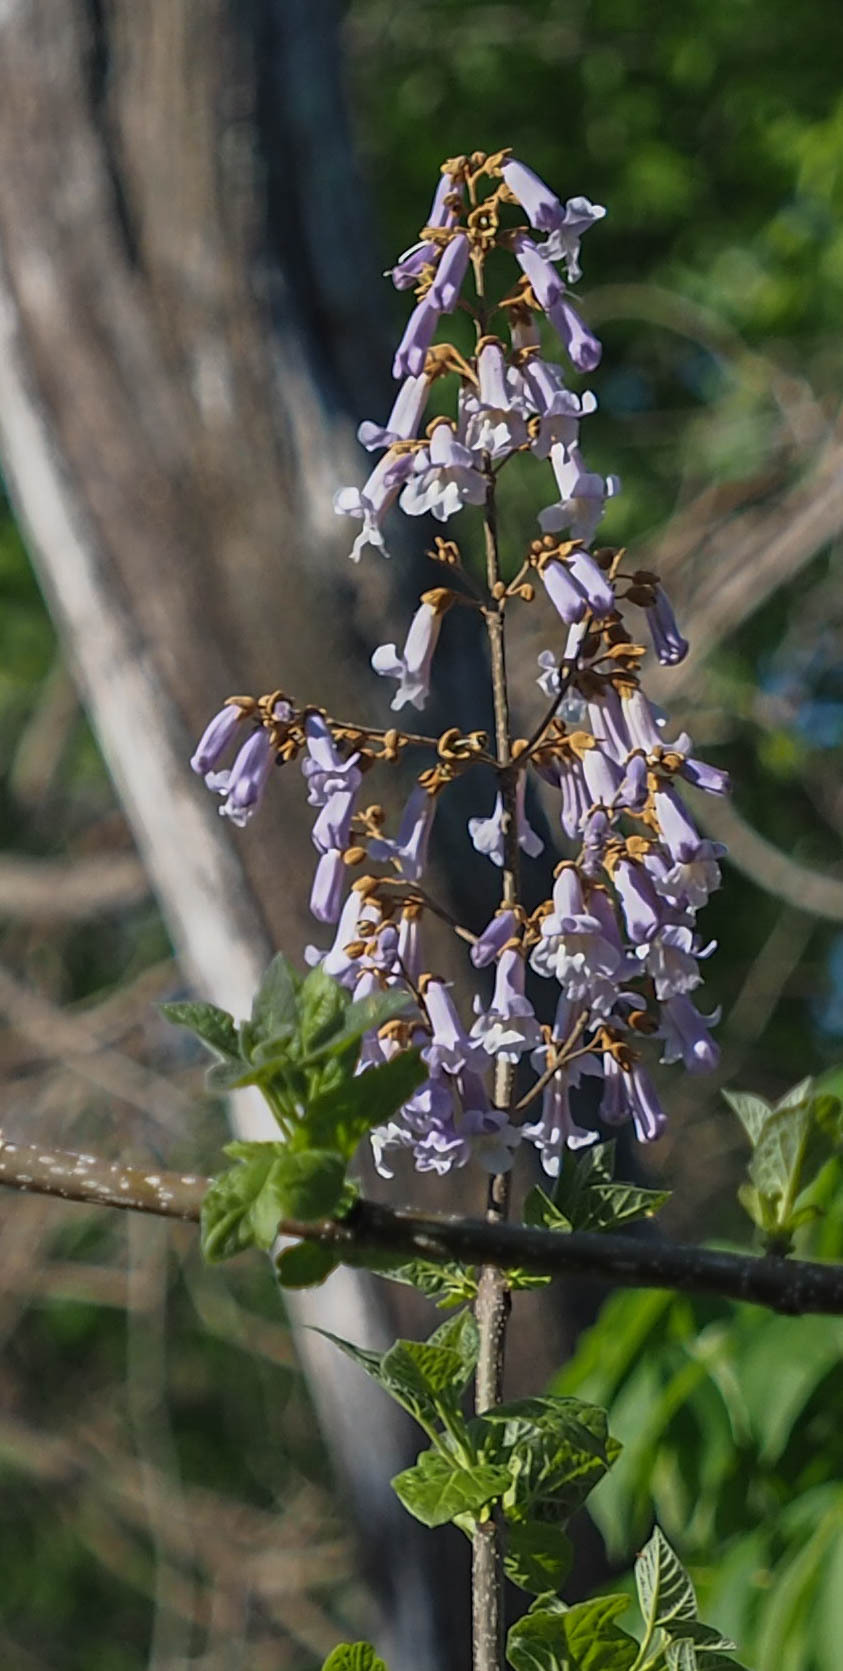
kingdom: Plantae
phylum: Tracheophyta
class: Magnoliopsida
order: Lamiales
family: Paulowniaceae
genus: Paulownia
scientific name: Paulownia tomentosa
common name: Foxglove-tree
